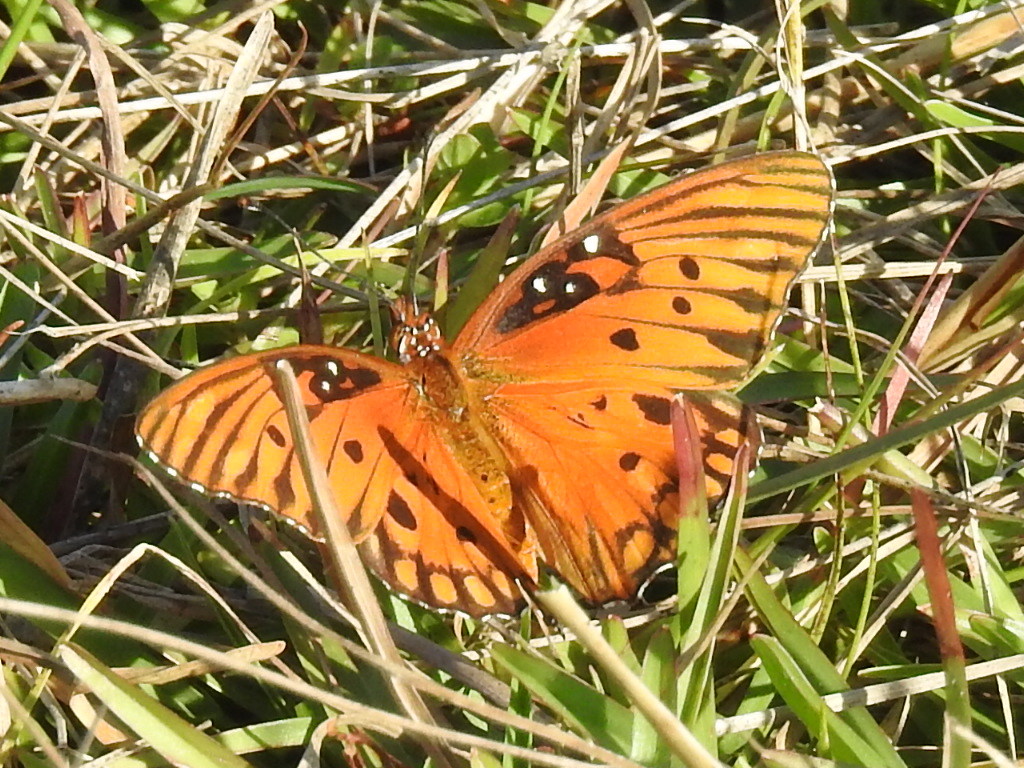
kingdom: Animalia
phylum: Arthropoda
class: Insecta
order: Lepidoptera
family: Nymphalidae
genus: Dione
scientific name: Dione vanillae
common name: Gulf fritillary
